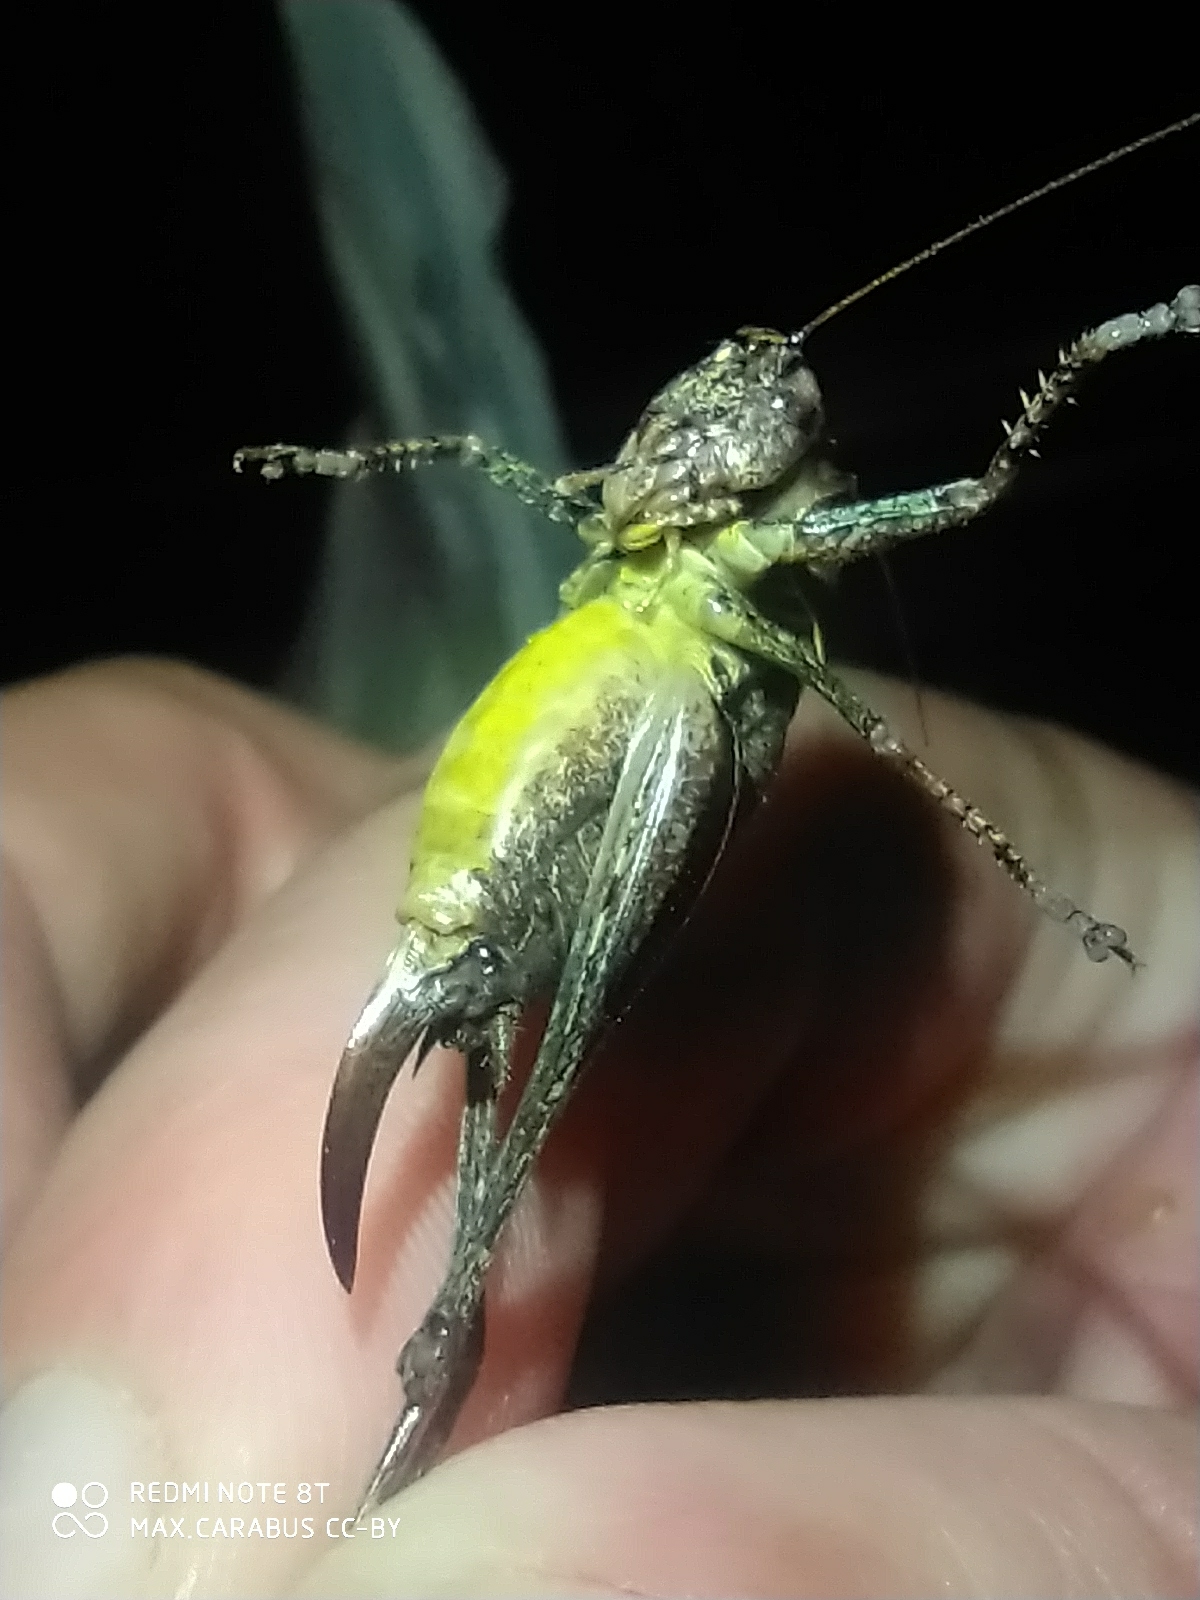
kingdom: Animalia
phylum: Arthropoda
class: Insecta
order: Orthoptera
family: Tettigoniidae
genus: Pholidoptera
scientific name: Pholidoptera griseoaptera
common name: Dark bush-cricket
